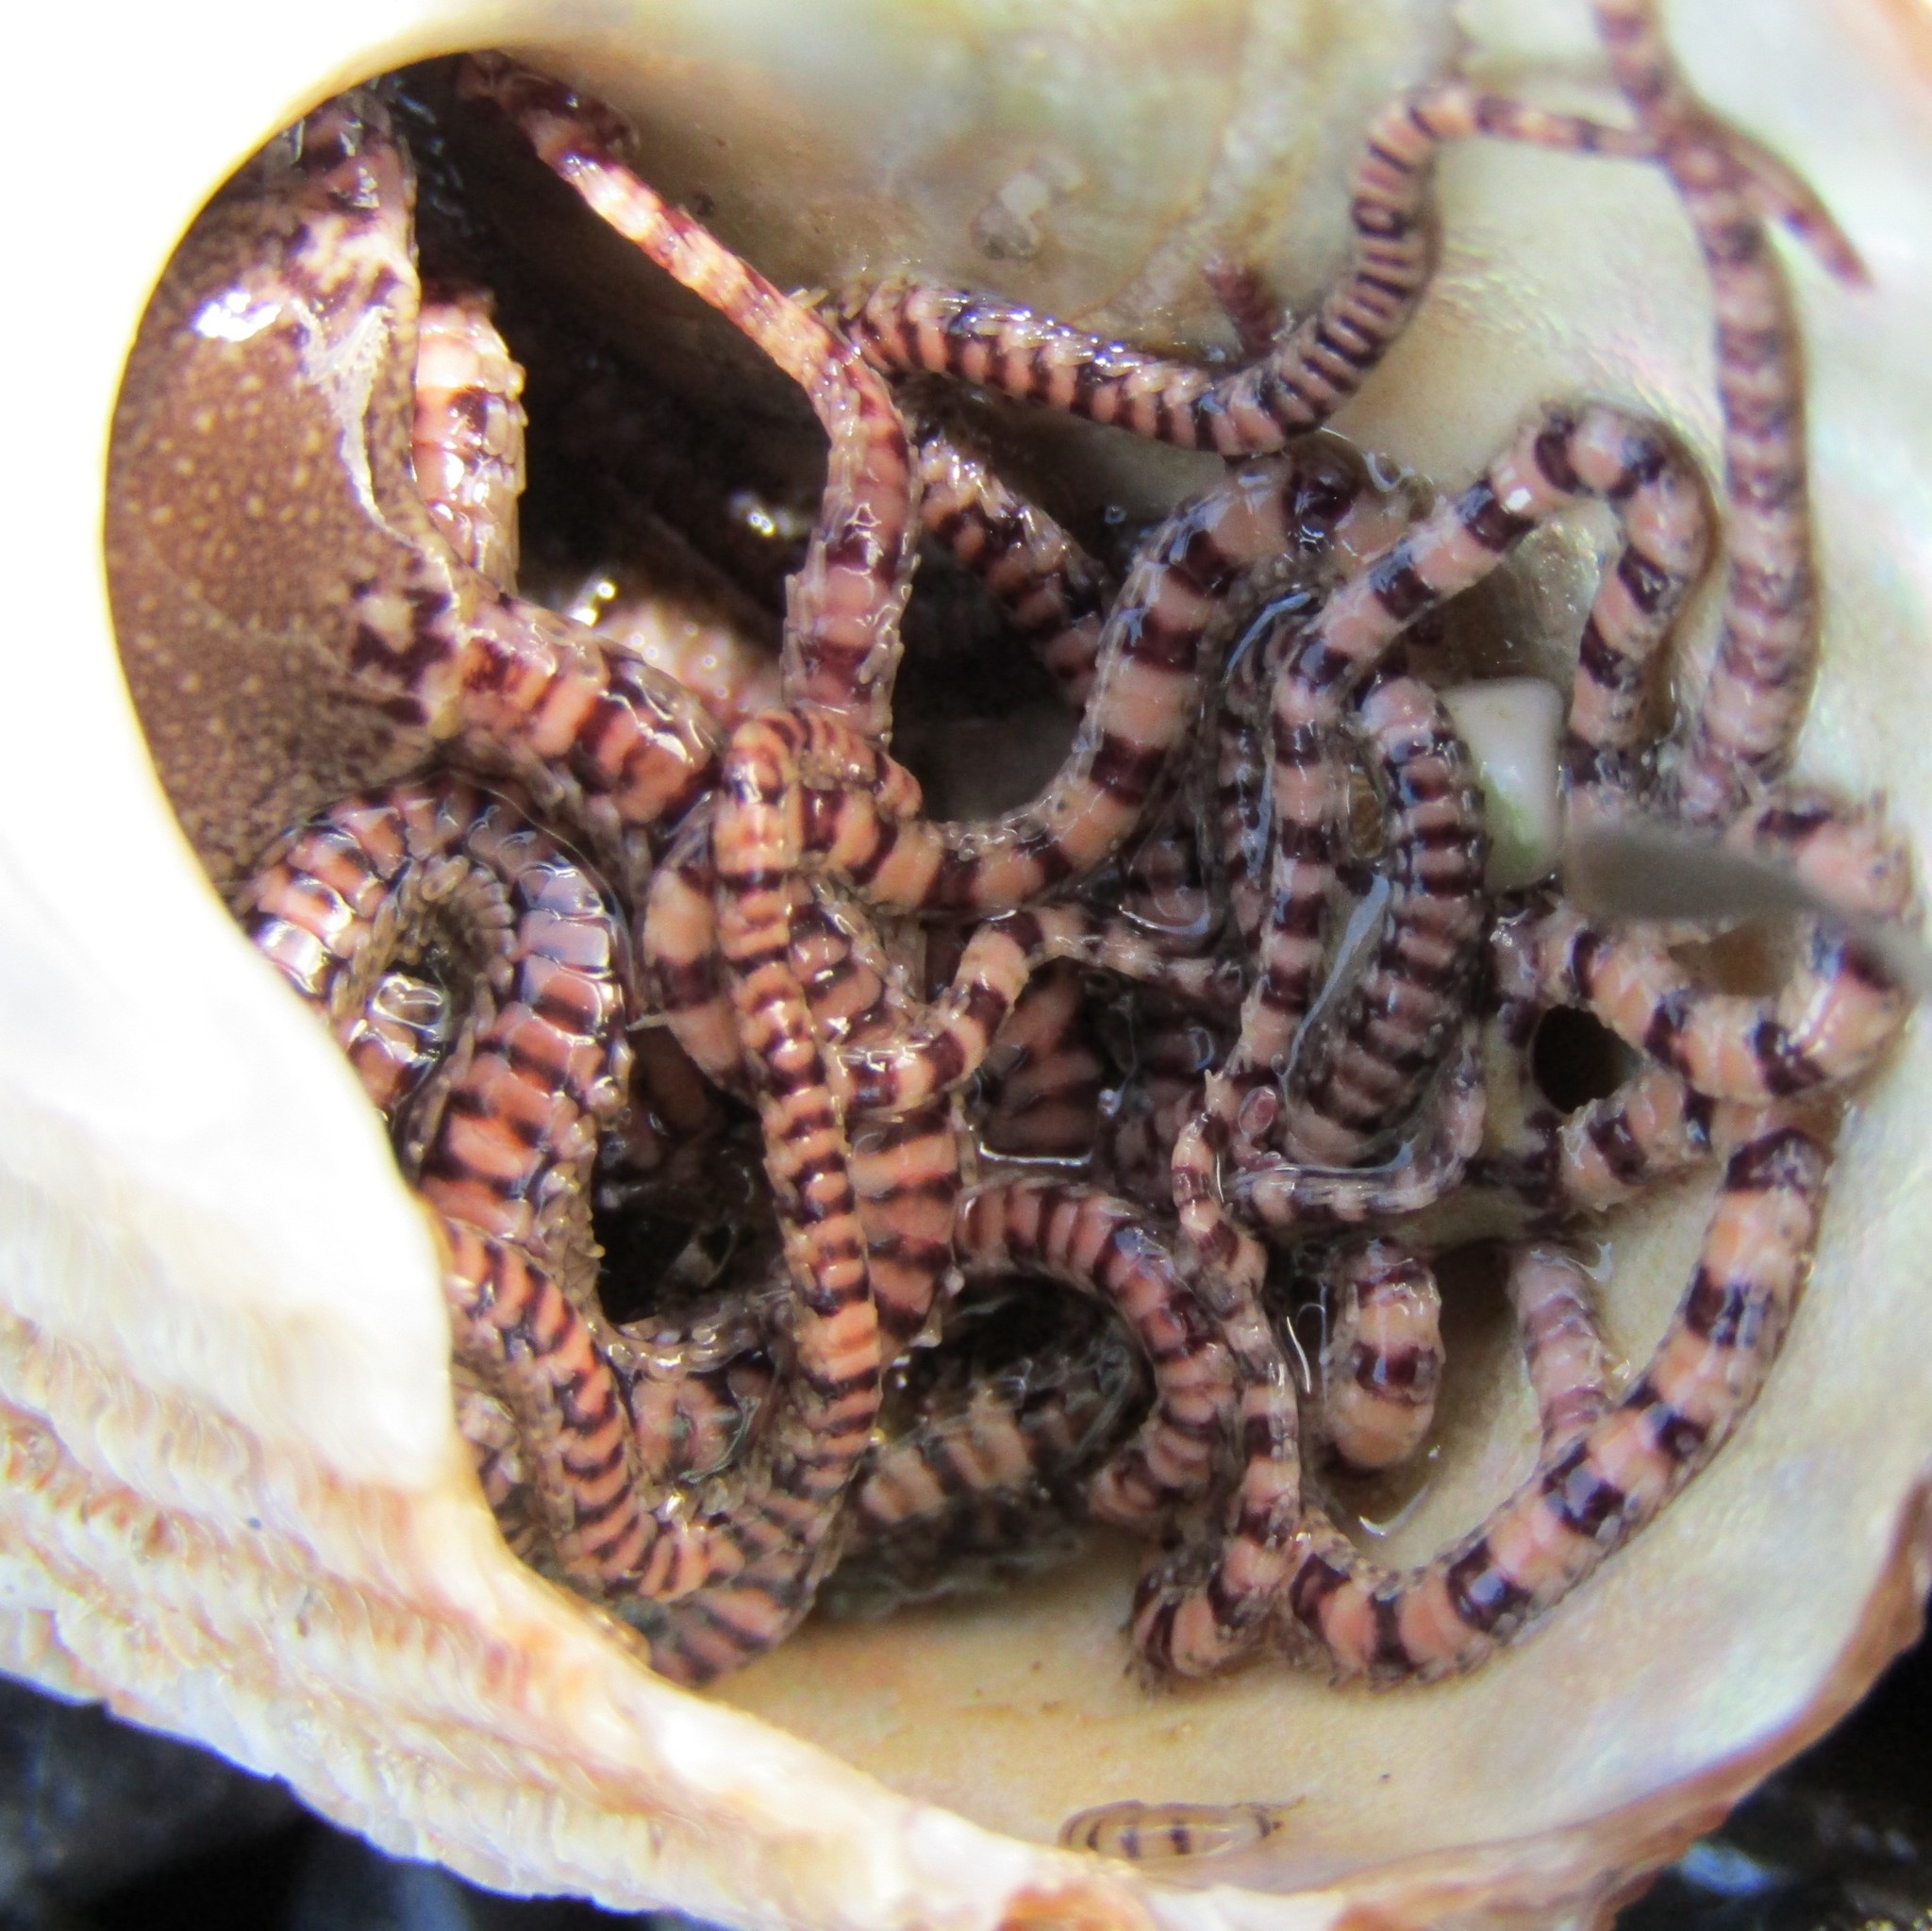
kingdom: Animalia
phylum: Echinodermata
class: Ophiuroidea
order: Amphilepidida
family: Ophionereididae
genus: Ophionereis
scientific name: Ophionereis fasciata
